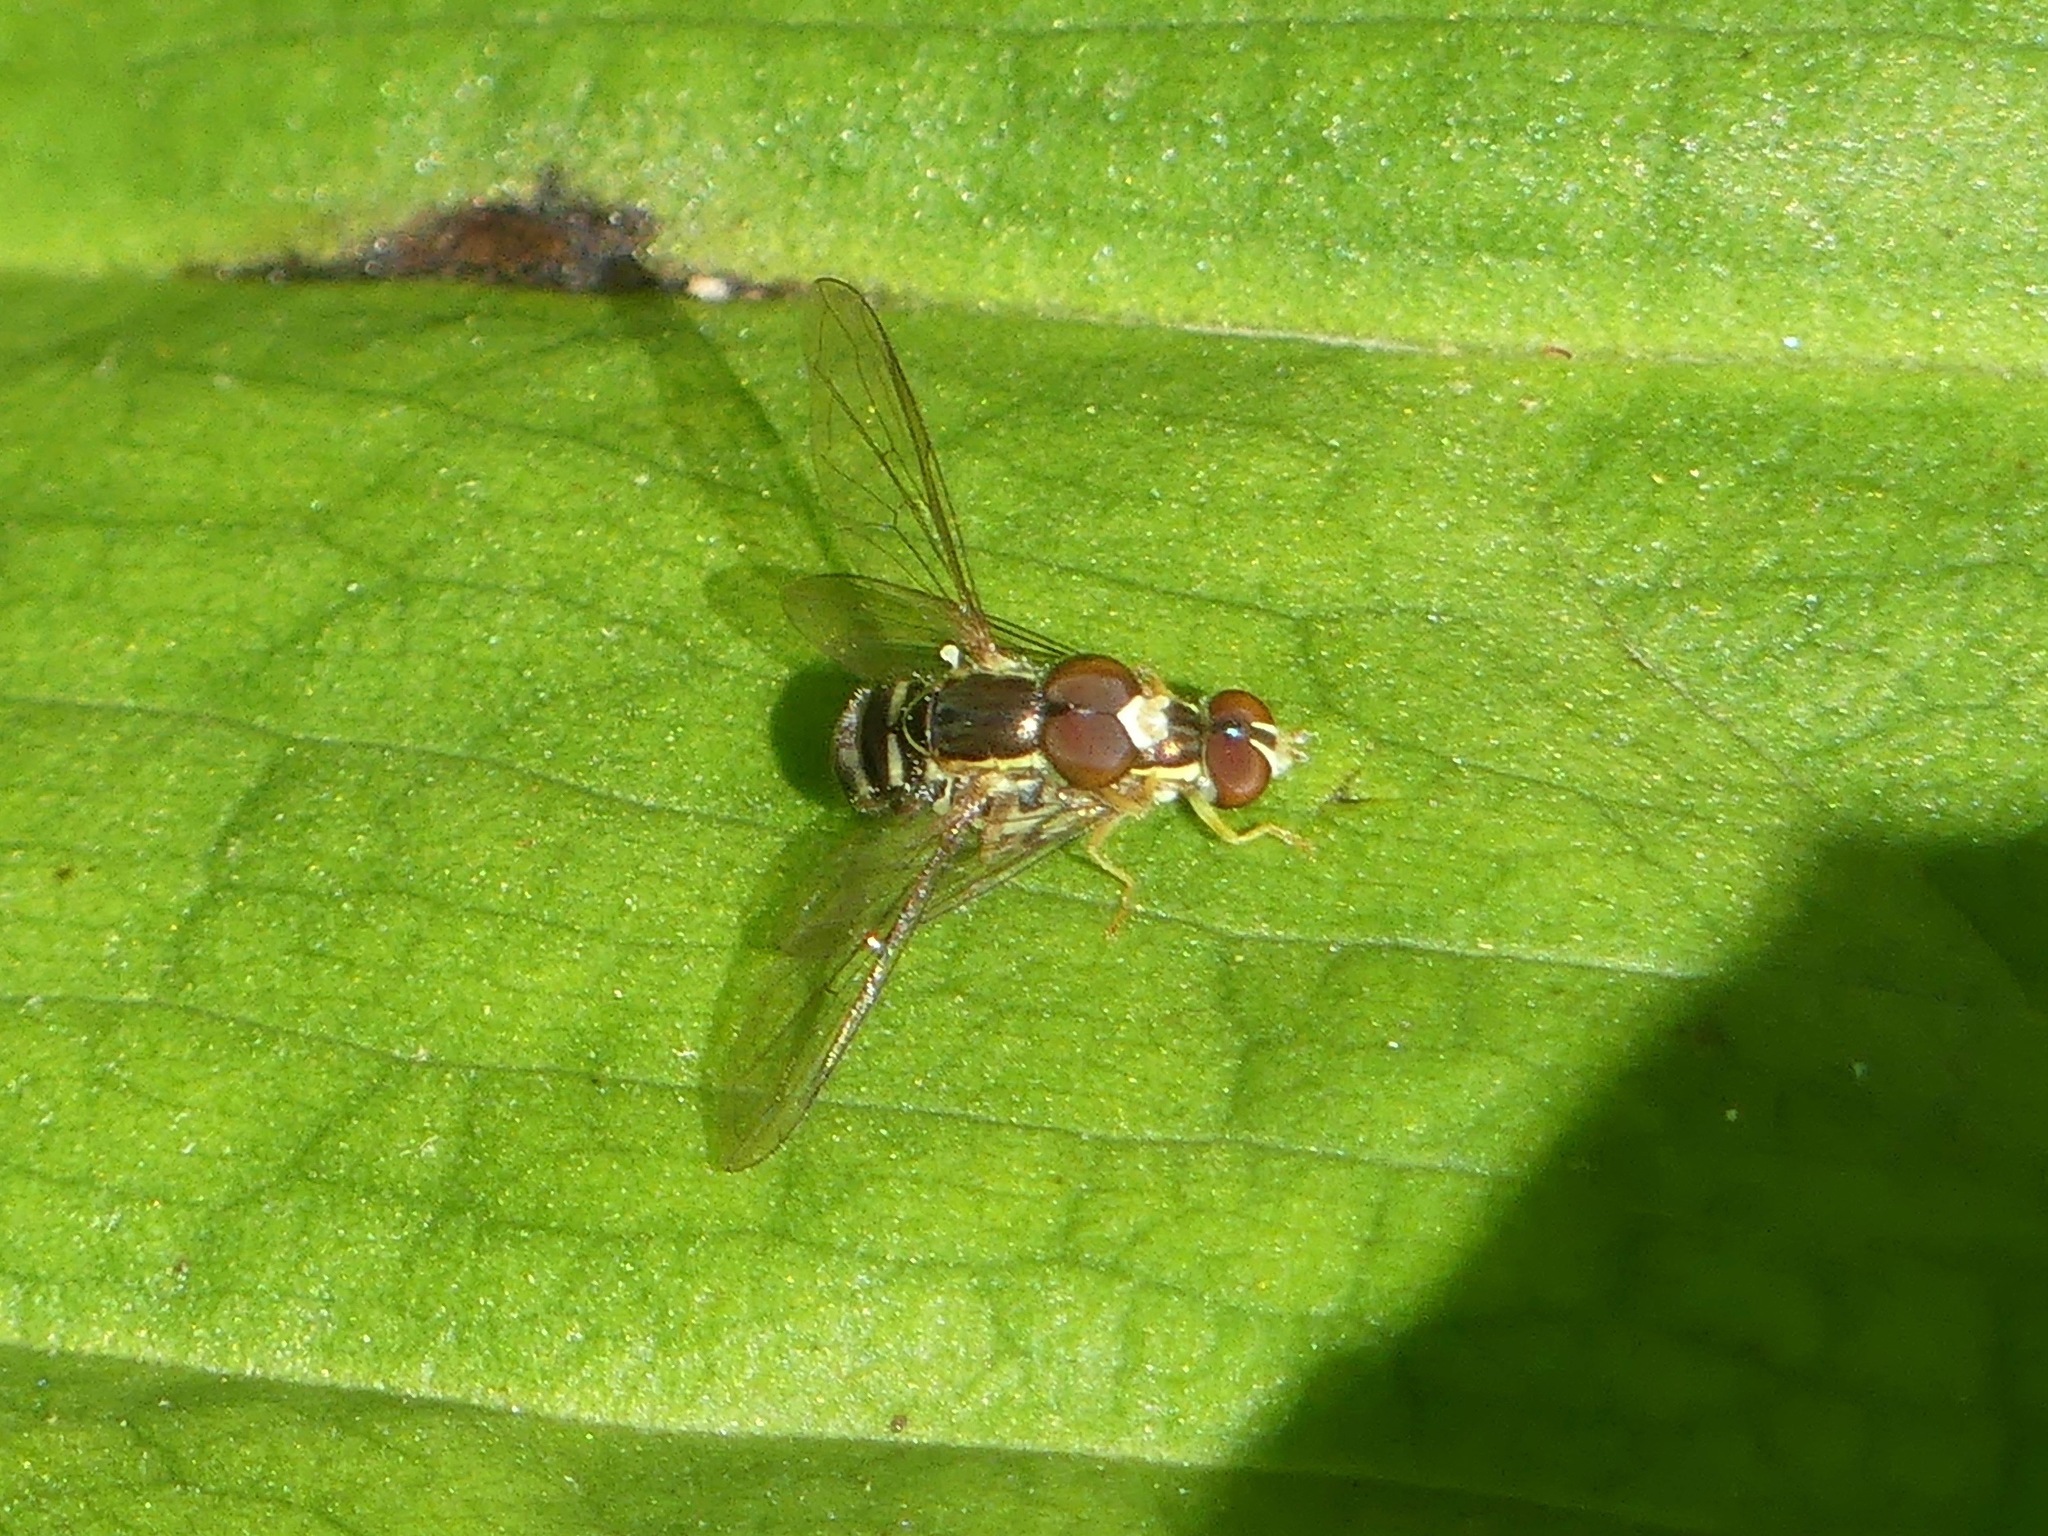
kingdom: Animalia
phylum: Arthropoda
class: Insecta
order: Diptera
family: Syrphidae
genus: Toxomerus
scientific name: Toxomerus geminatus
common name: Eastern calligrapher
